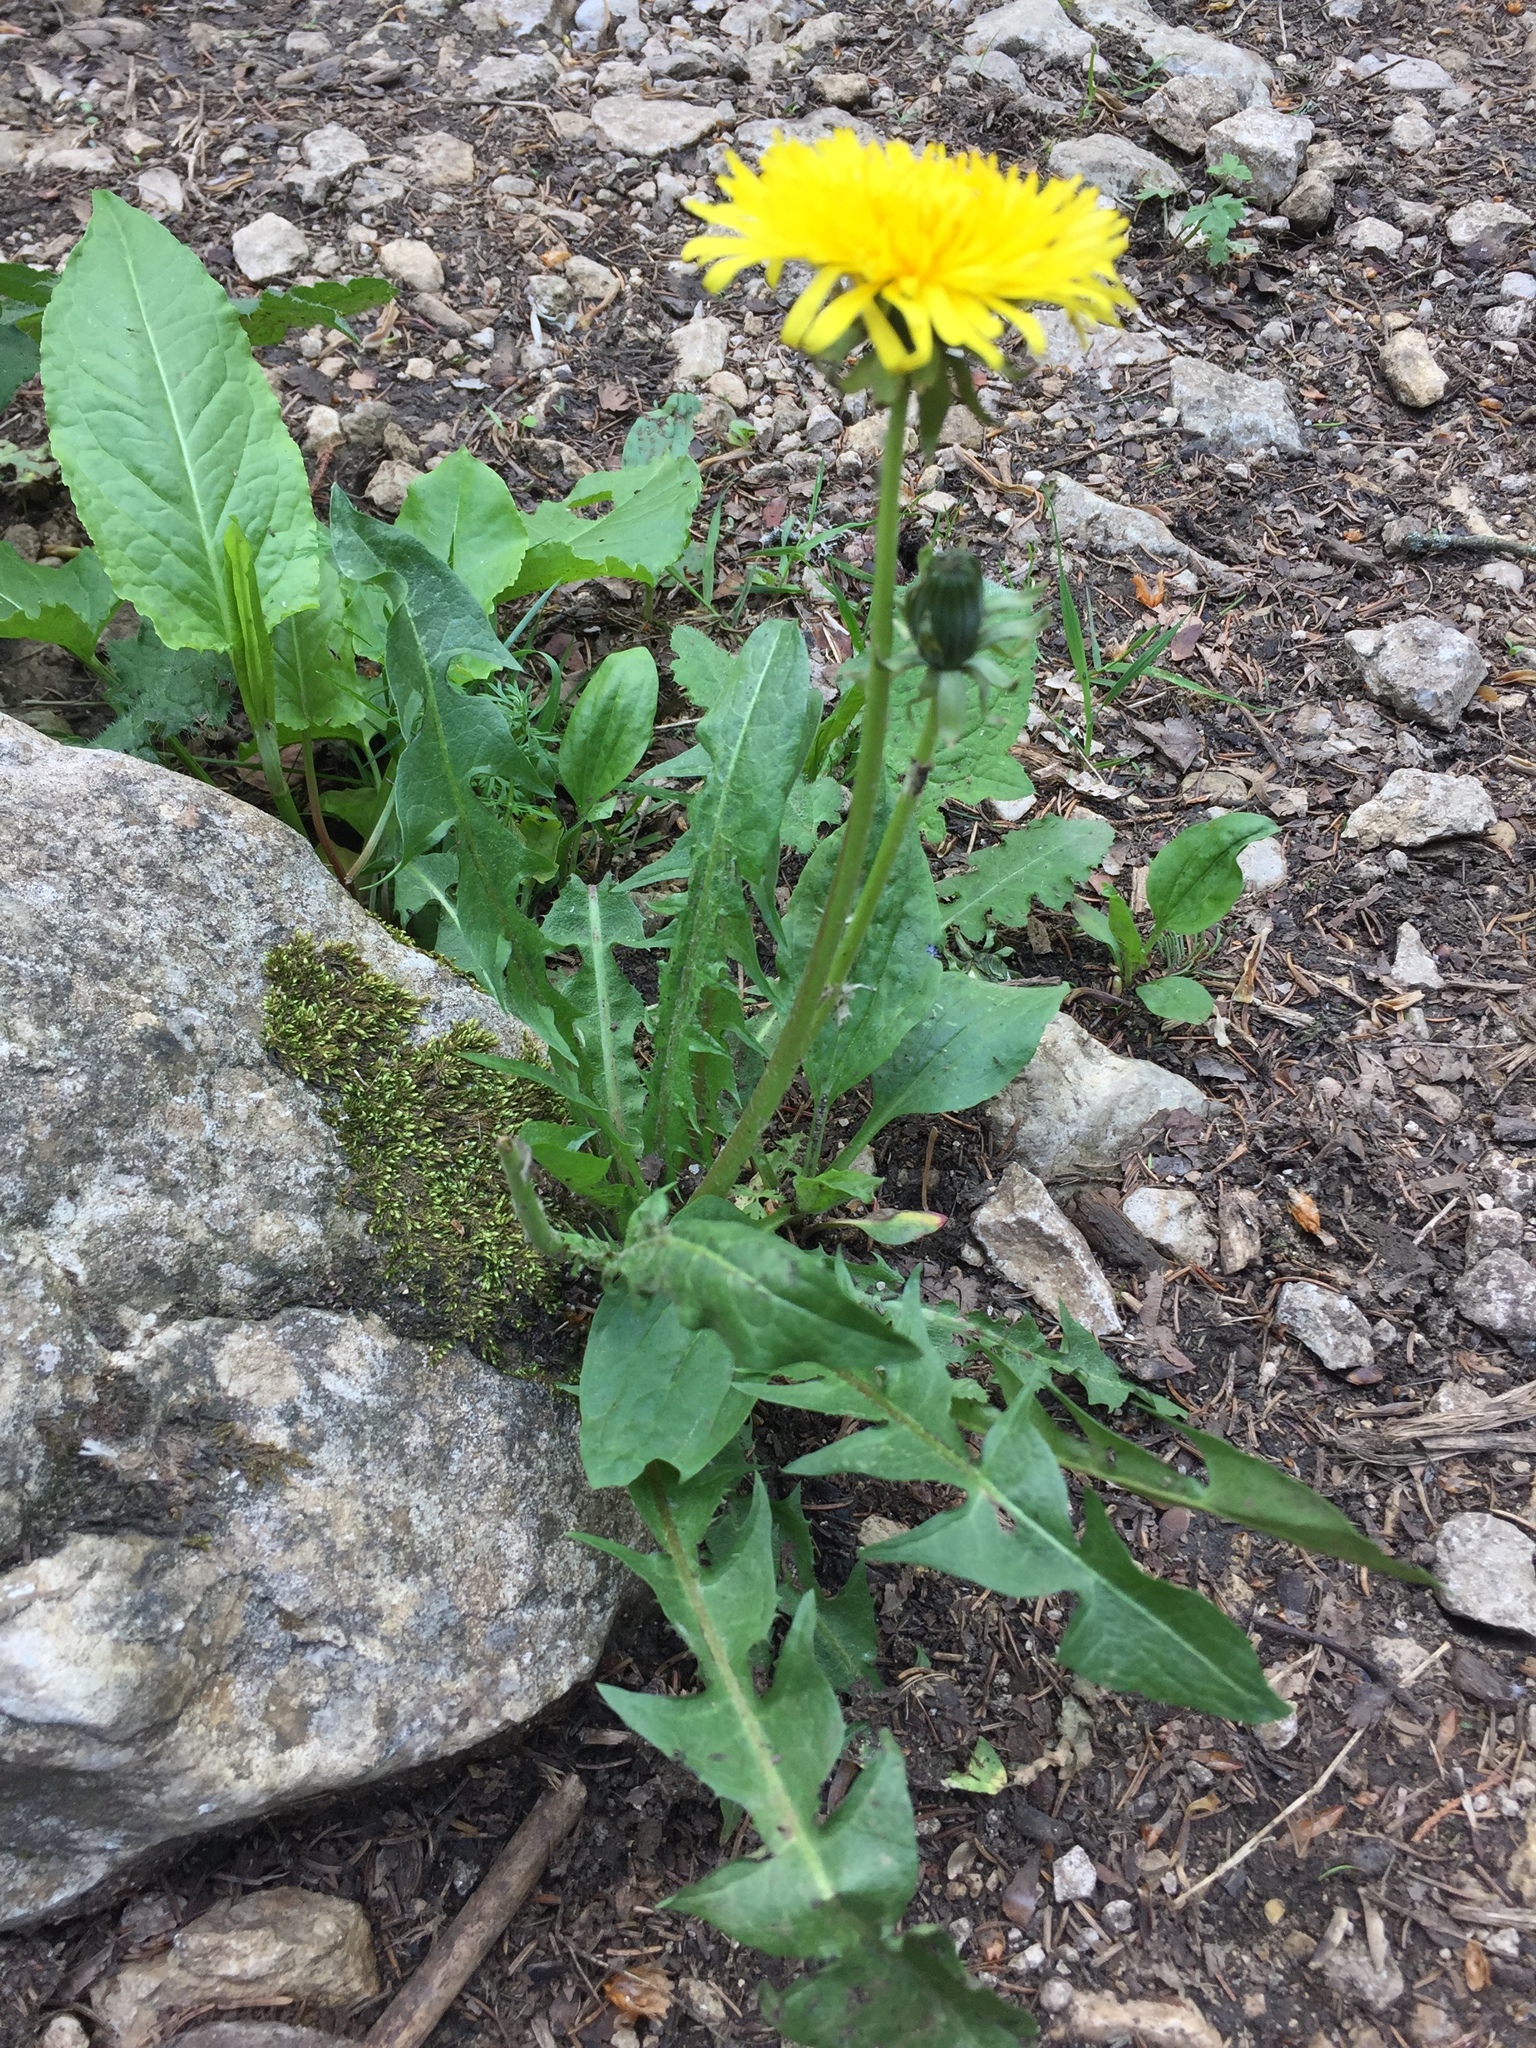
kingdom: Plantae
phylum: Tracheophyta
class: Magnoliopsida
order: Asterales
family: Asteraceae
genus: Taraxacum
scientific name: Taraxacum officinale
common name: Common dandelion
